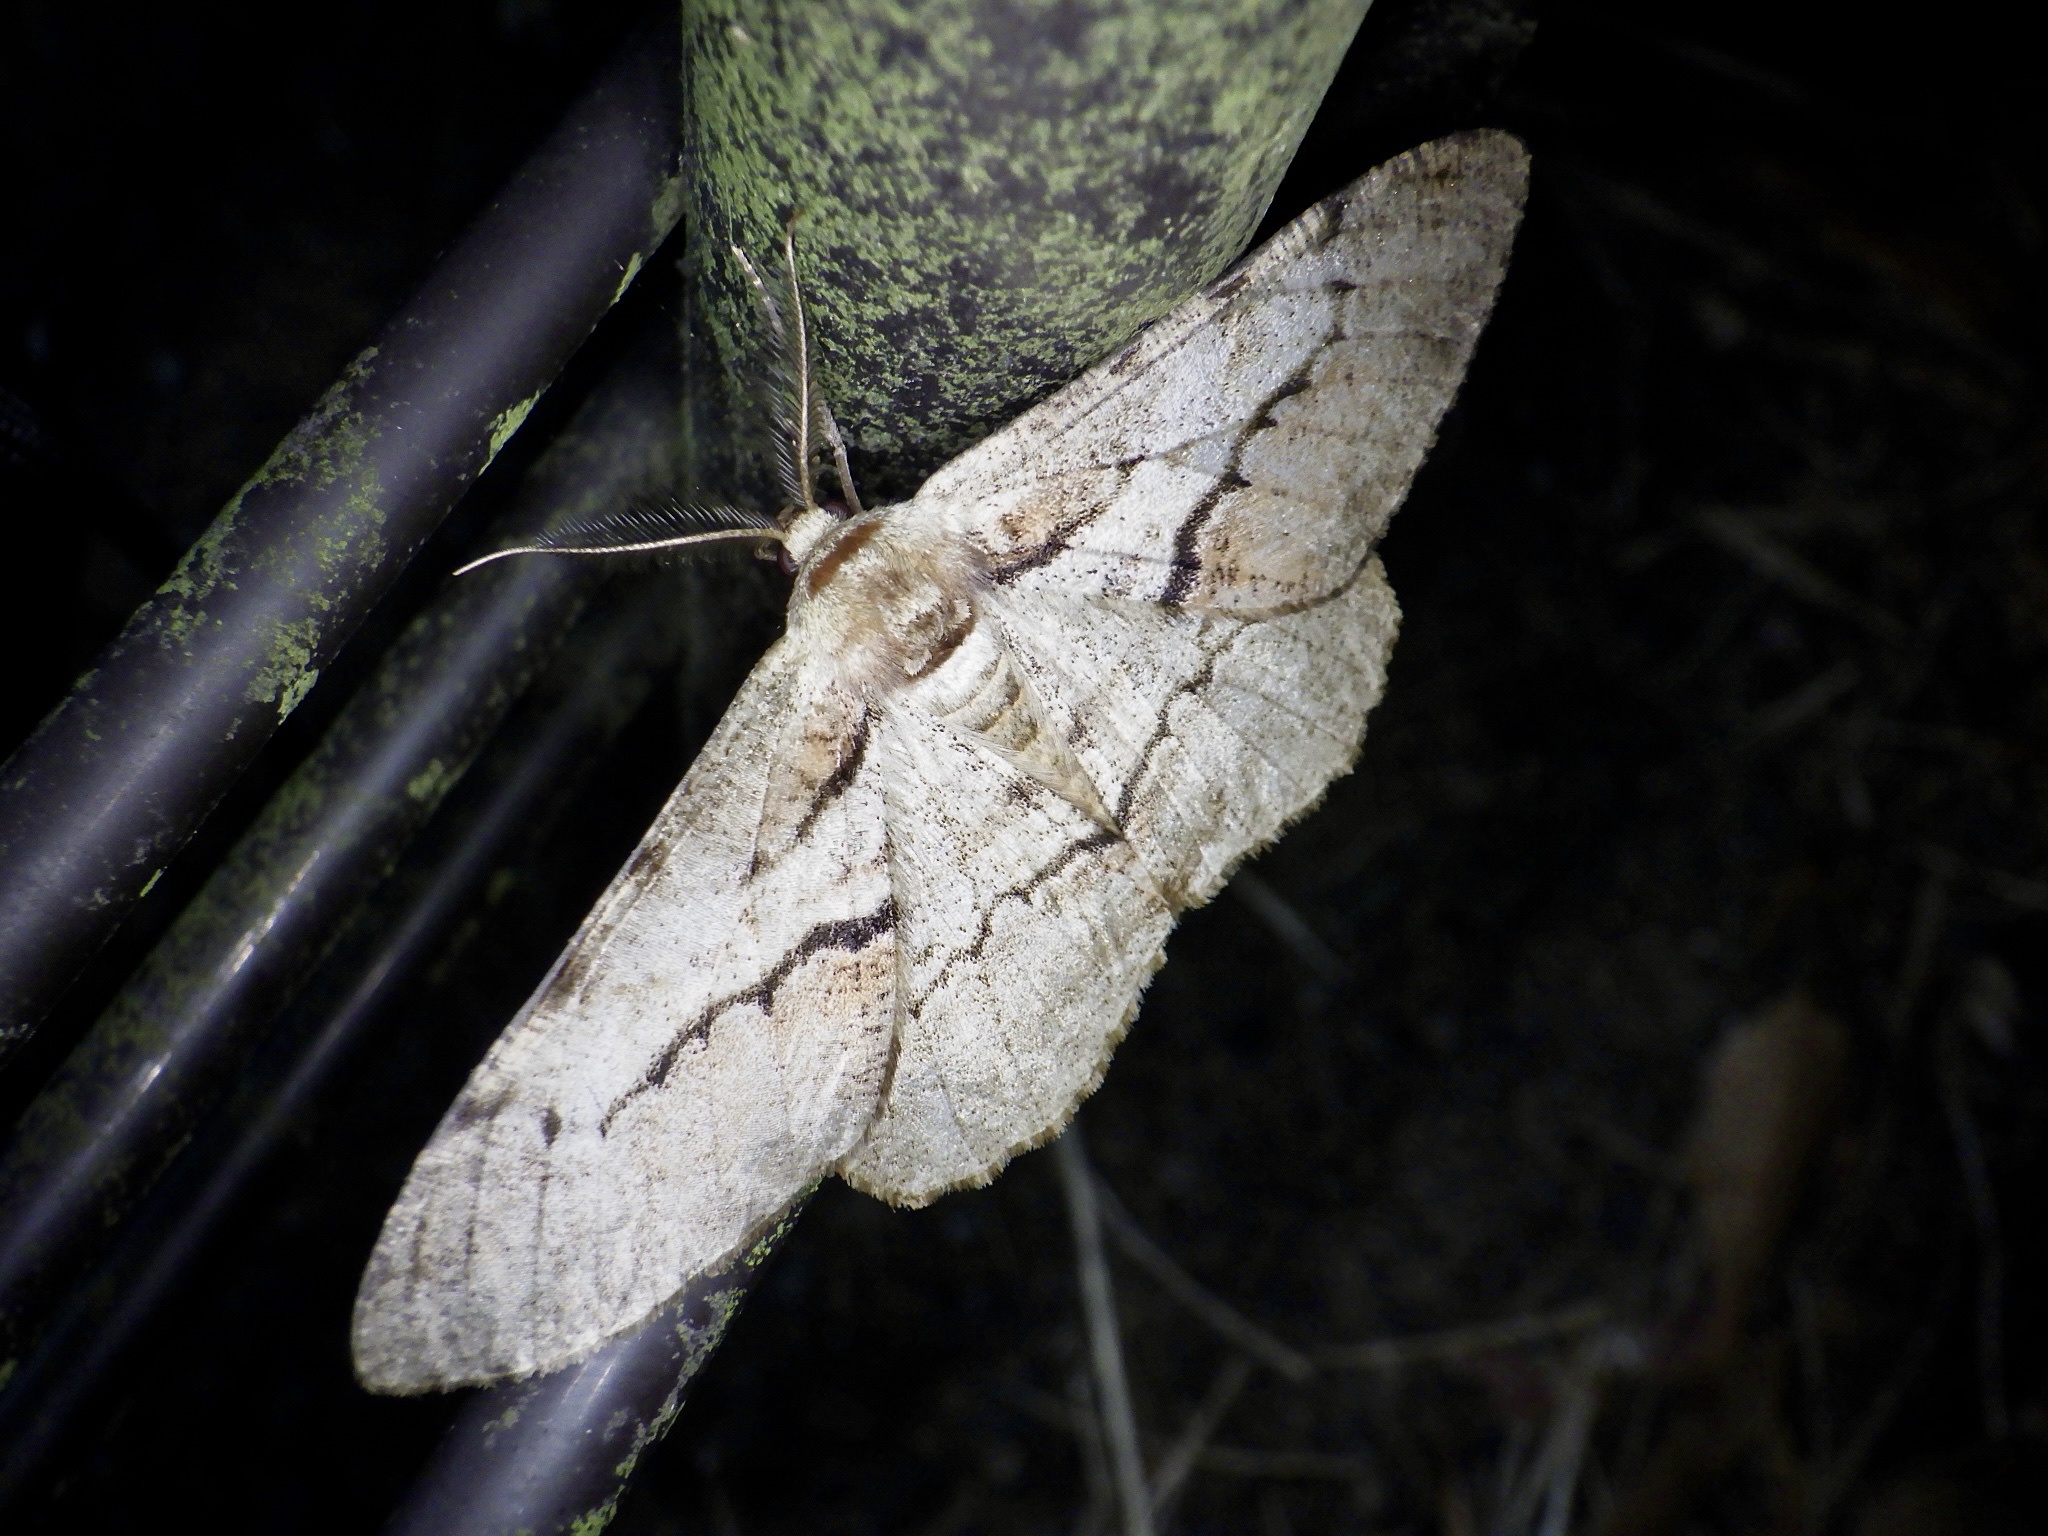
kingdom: Animalia
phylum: Arthropoda
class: Insecta
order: Lepidoptera
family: Geometridae
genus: Phthonosema
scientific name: Phthonosema tendinosaria
